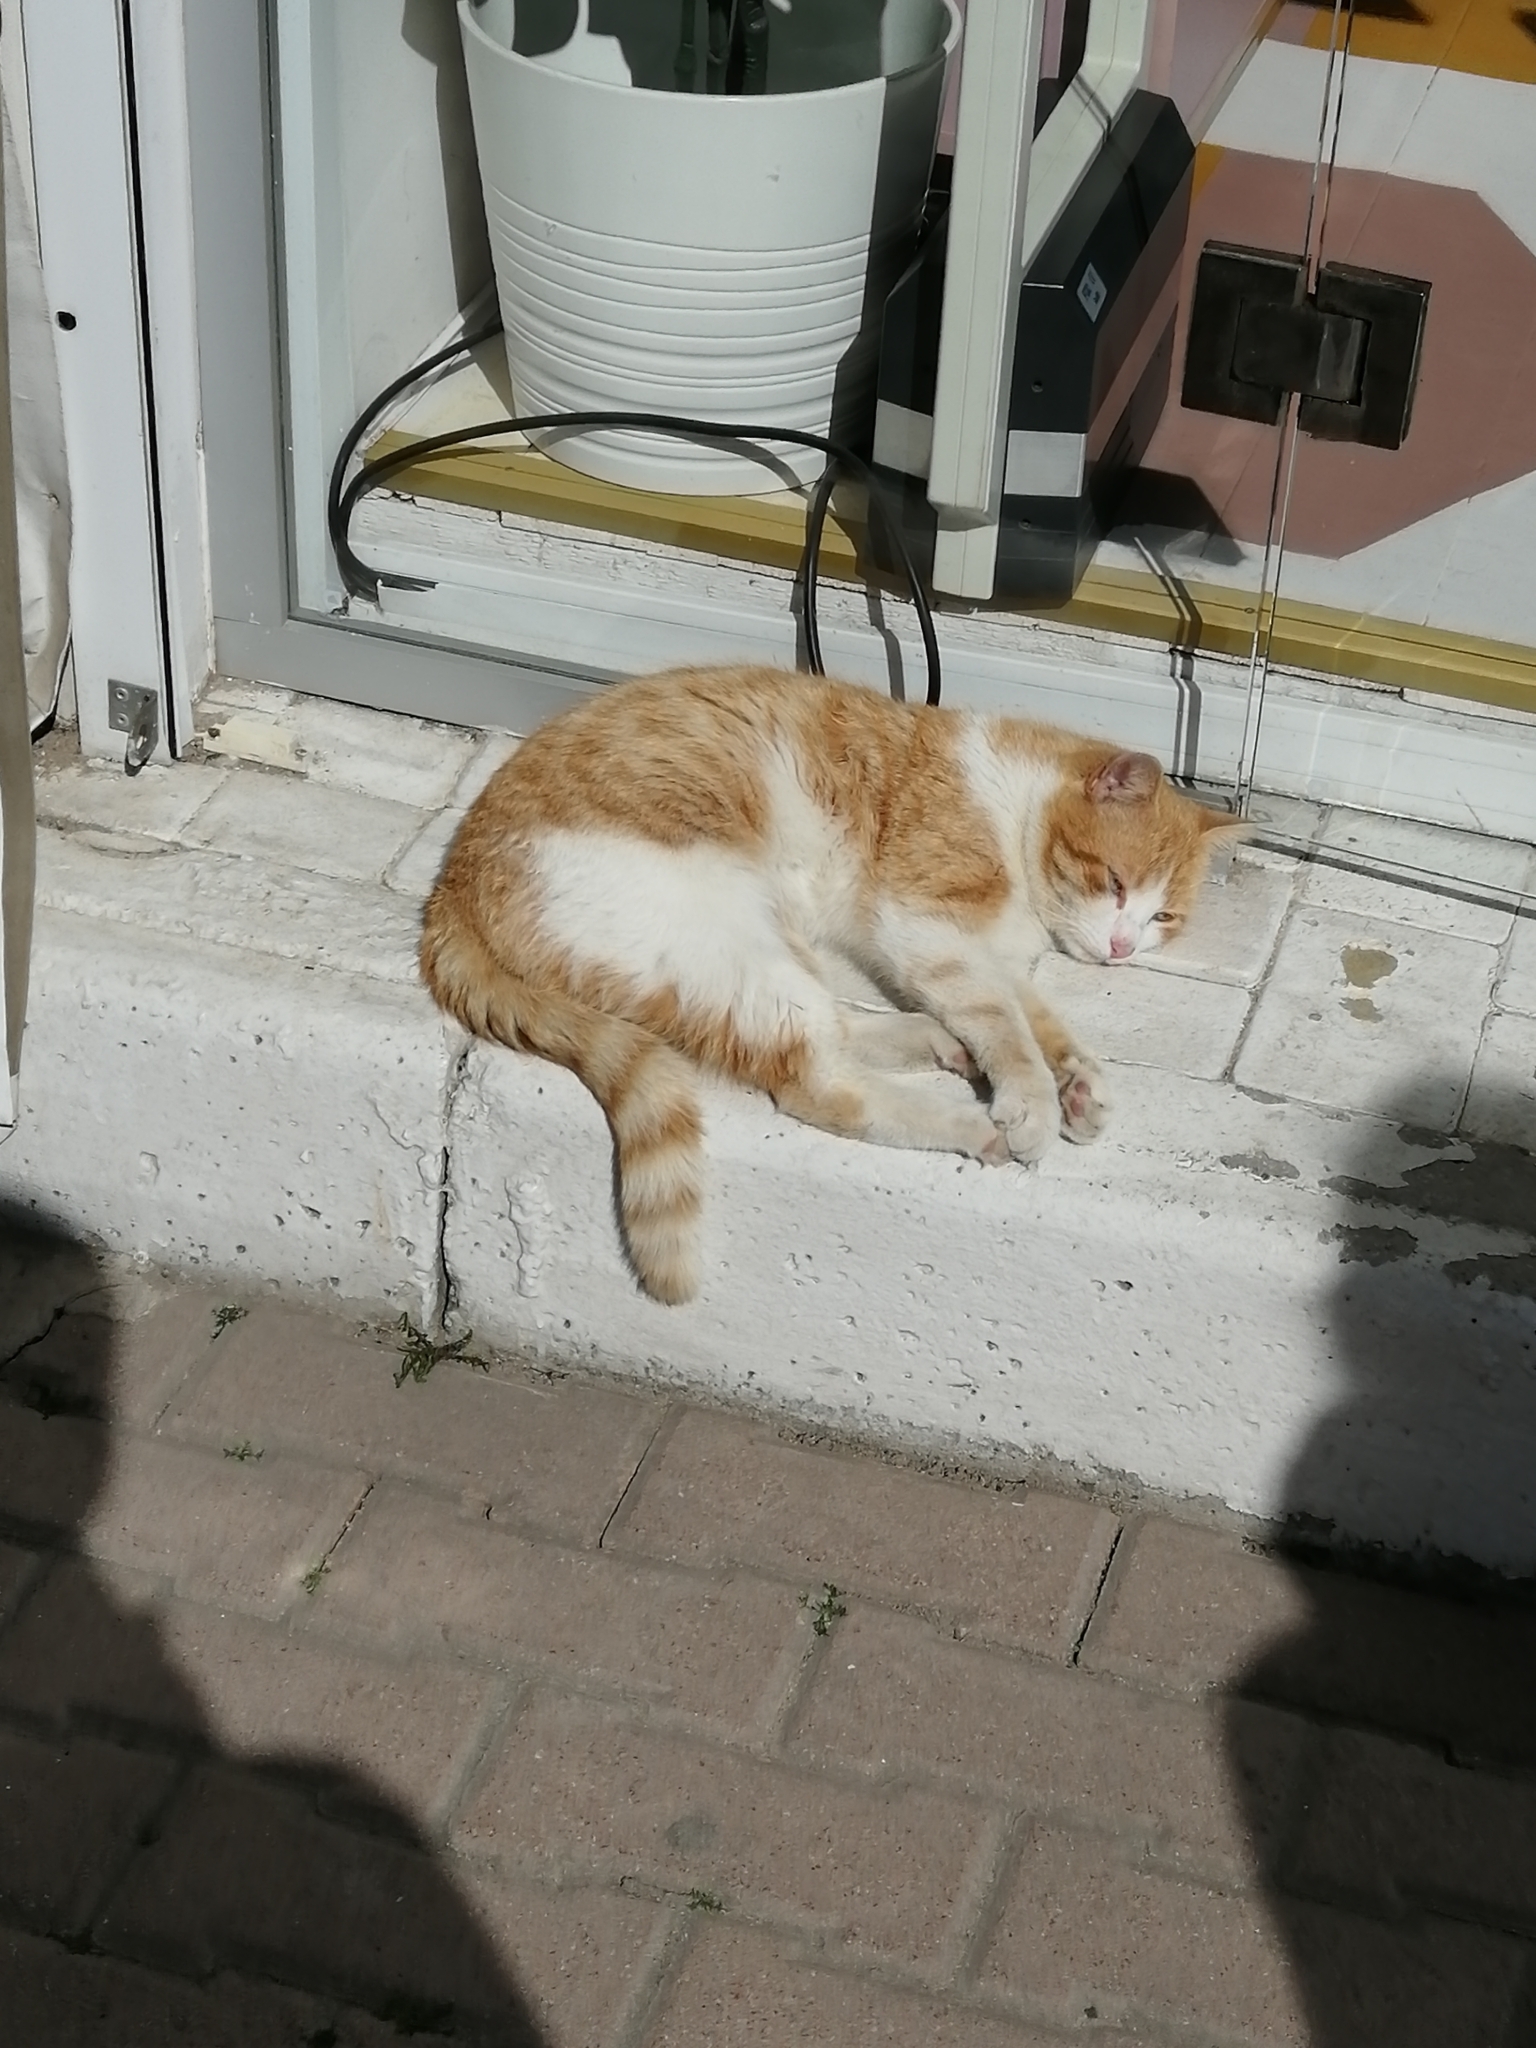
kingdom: Animalia
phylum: Chordata
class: Mammalia
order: Carnivora
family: Felidae
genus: Felis
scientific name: Felis catus
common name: Domestic cat
